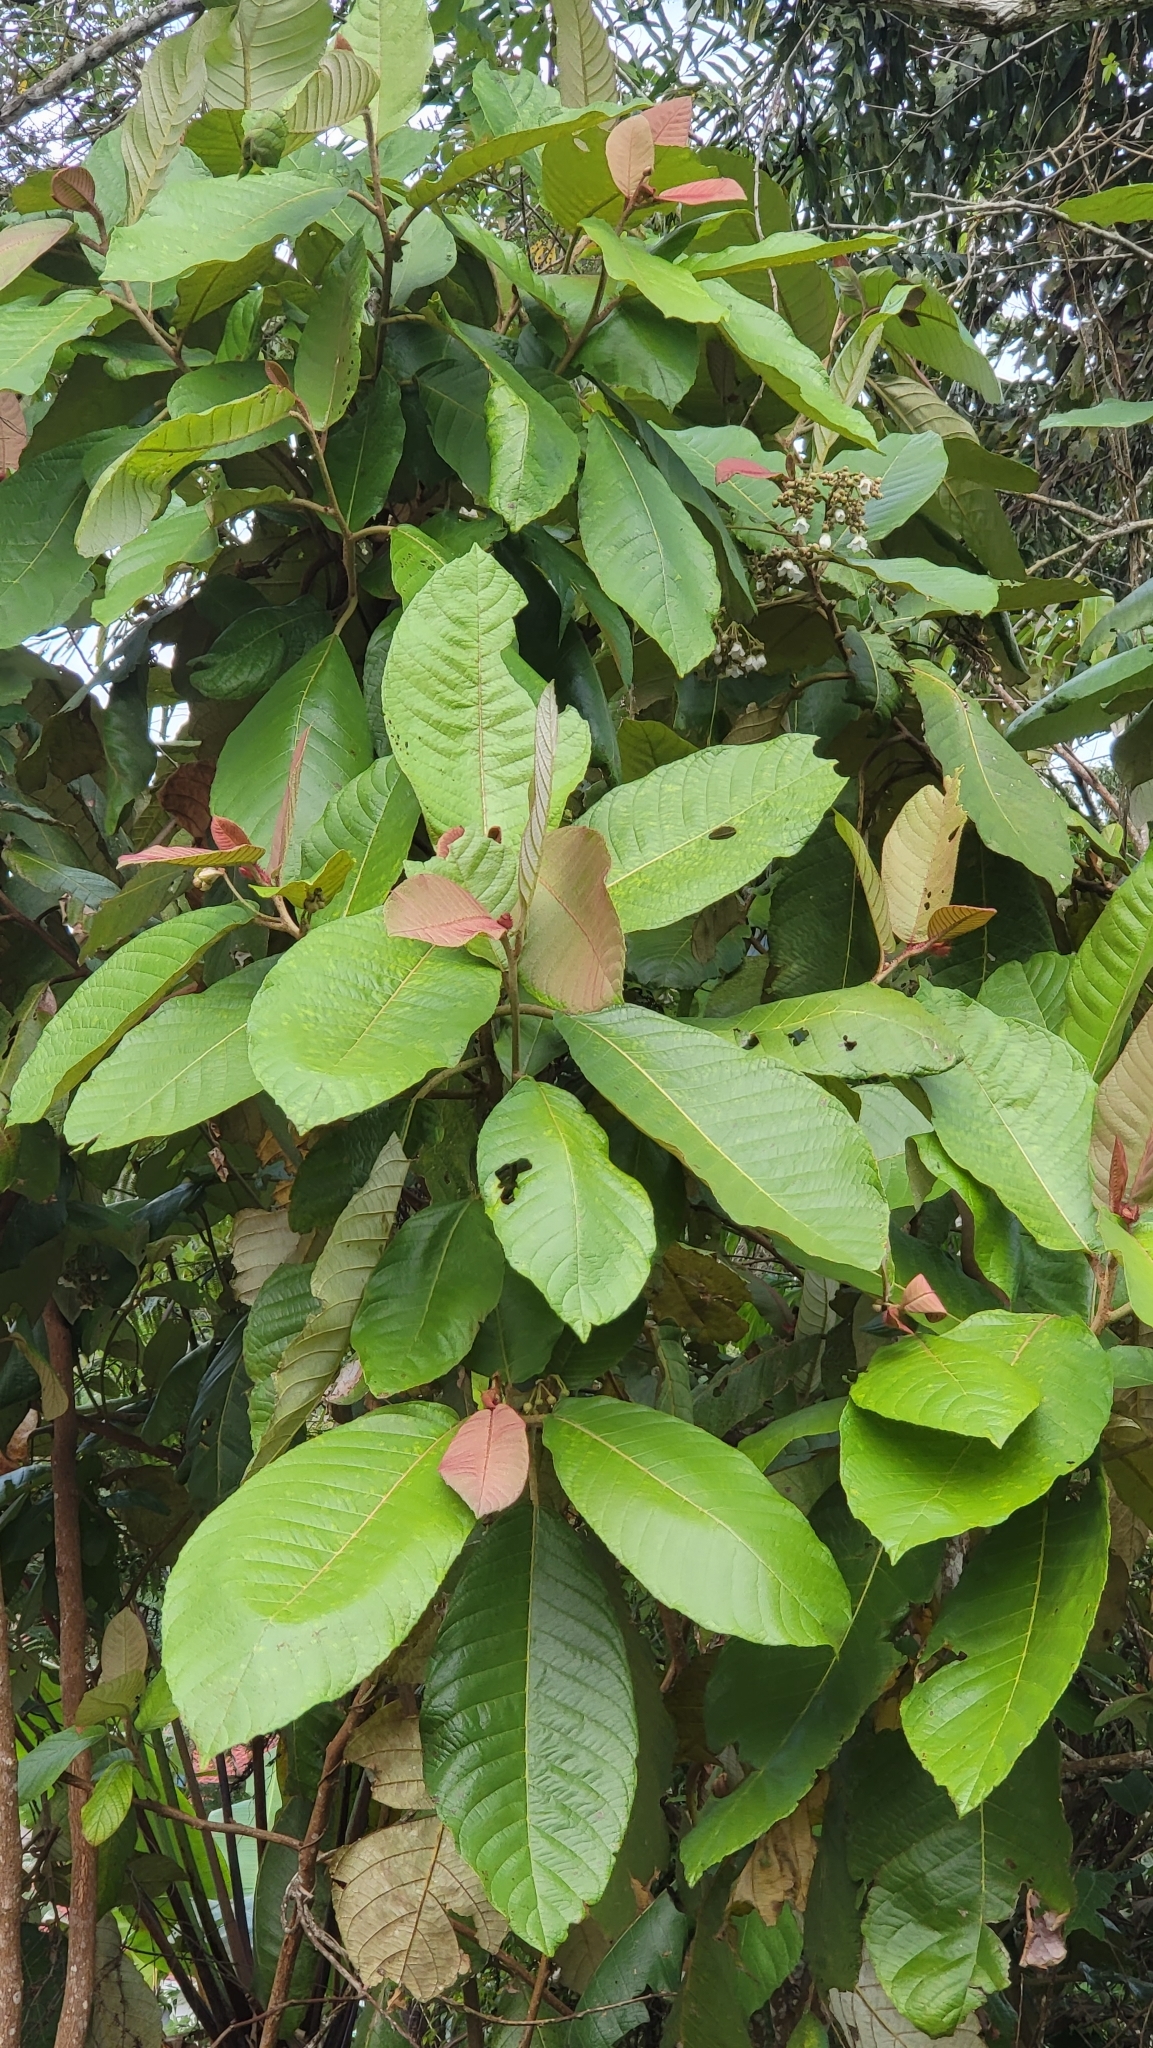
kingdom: Plantae
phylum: Tracheophyta
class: Magnoliopsida
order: Ericales
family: Actinidiaceae
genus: Saurauia
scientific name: Saurauia malayana
